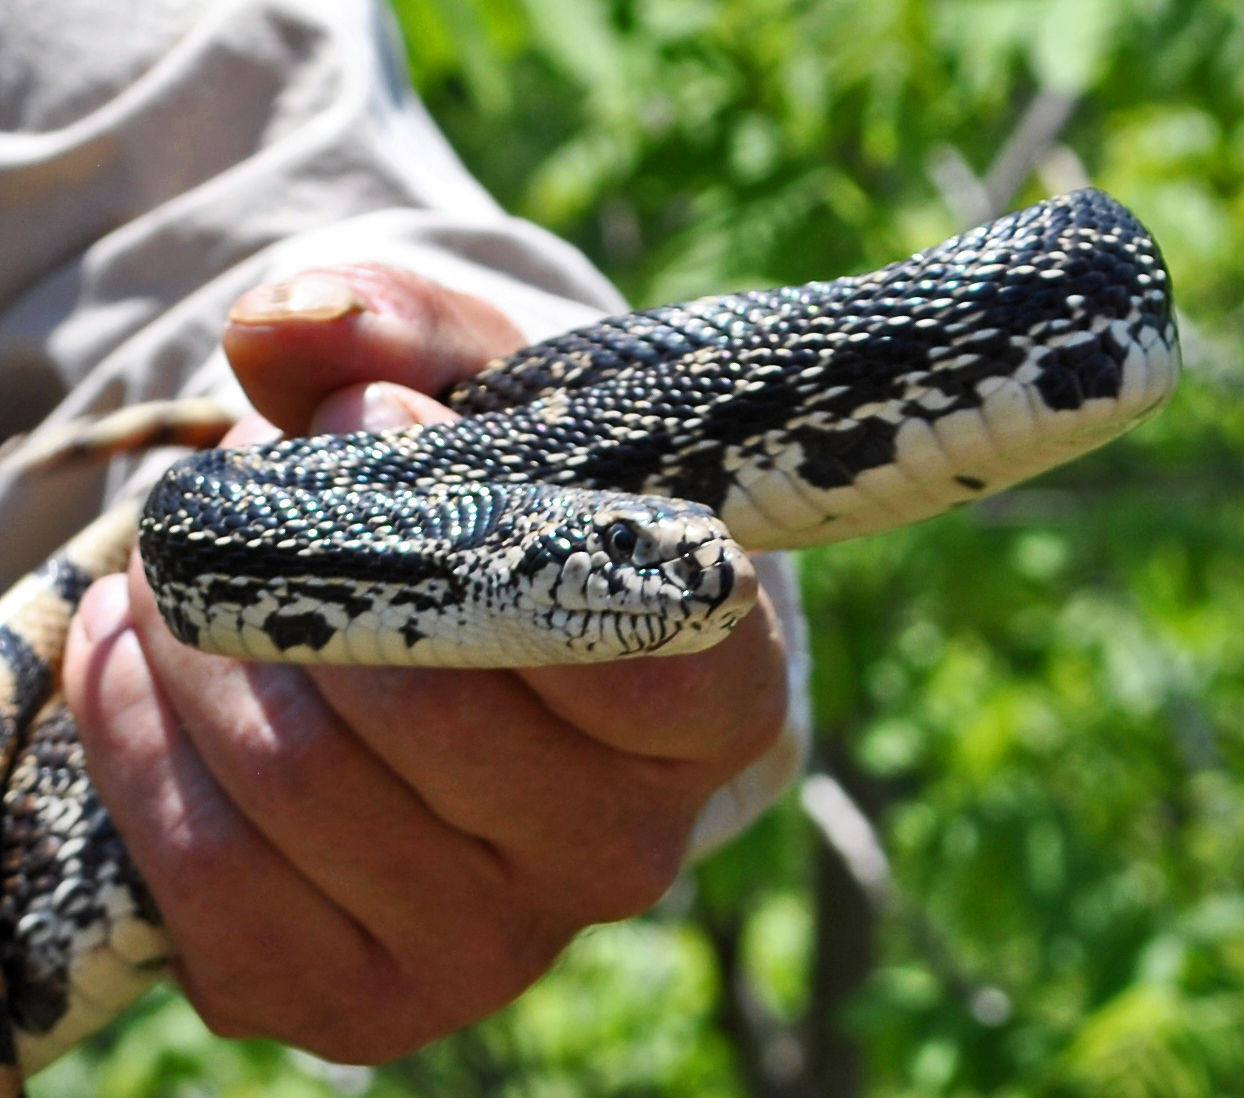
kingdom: Animalia
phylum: Chordata
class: Squamata
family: Colubridae
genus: Pituophis
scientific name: Pituophis catenifer
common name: Gopher snake
